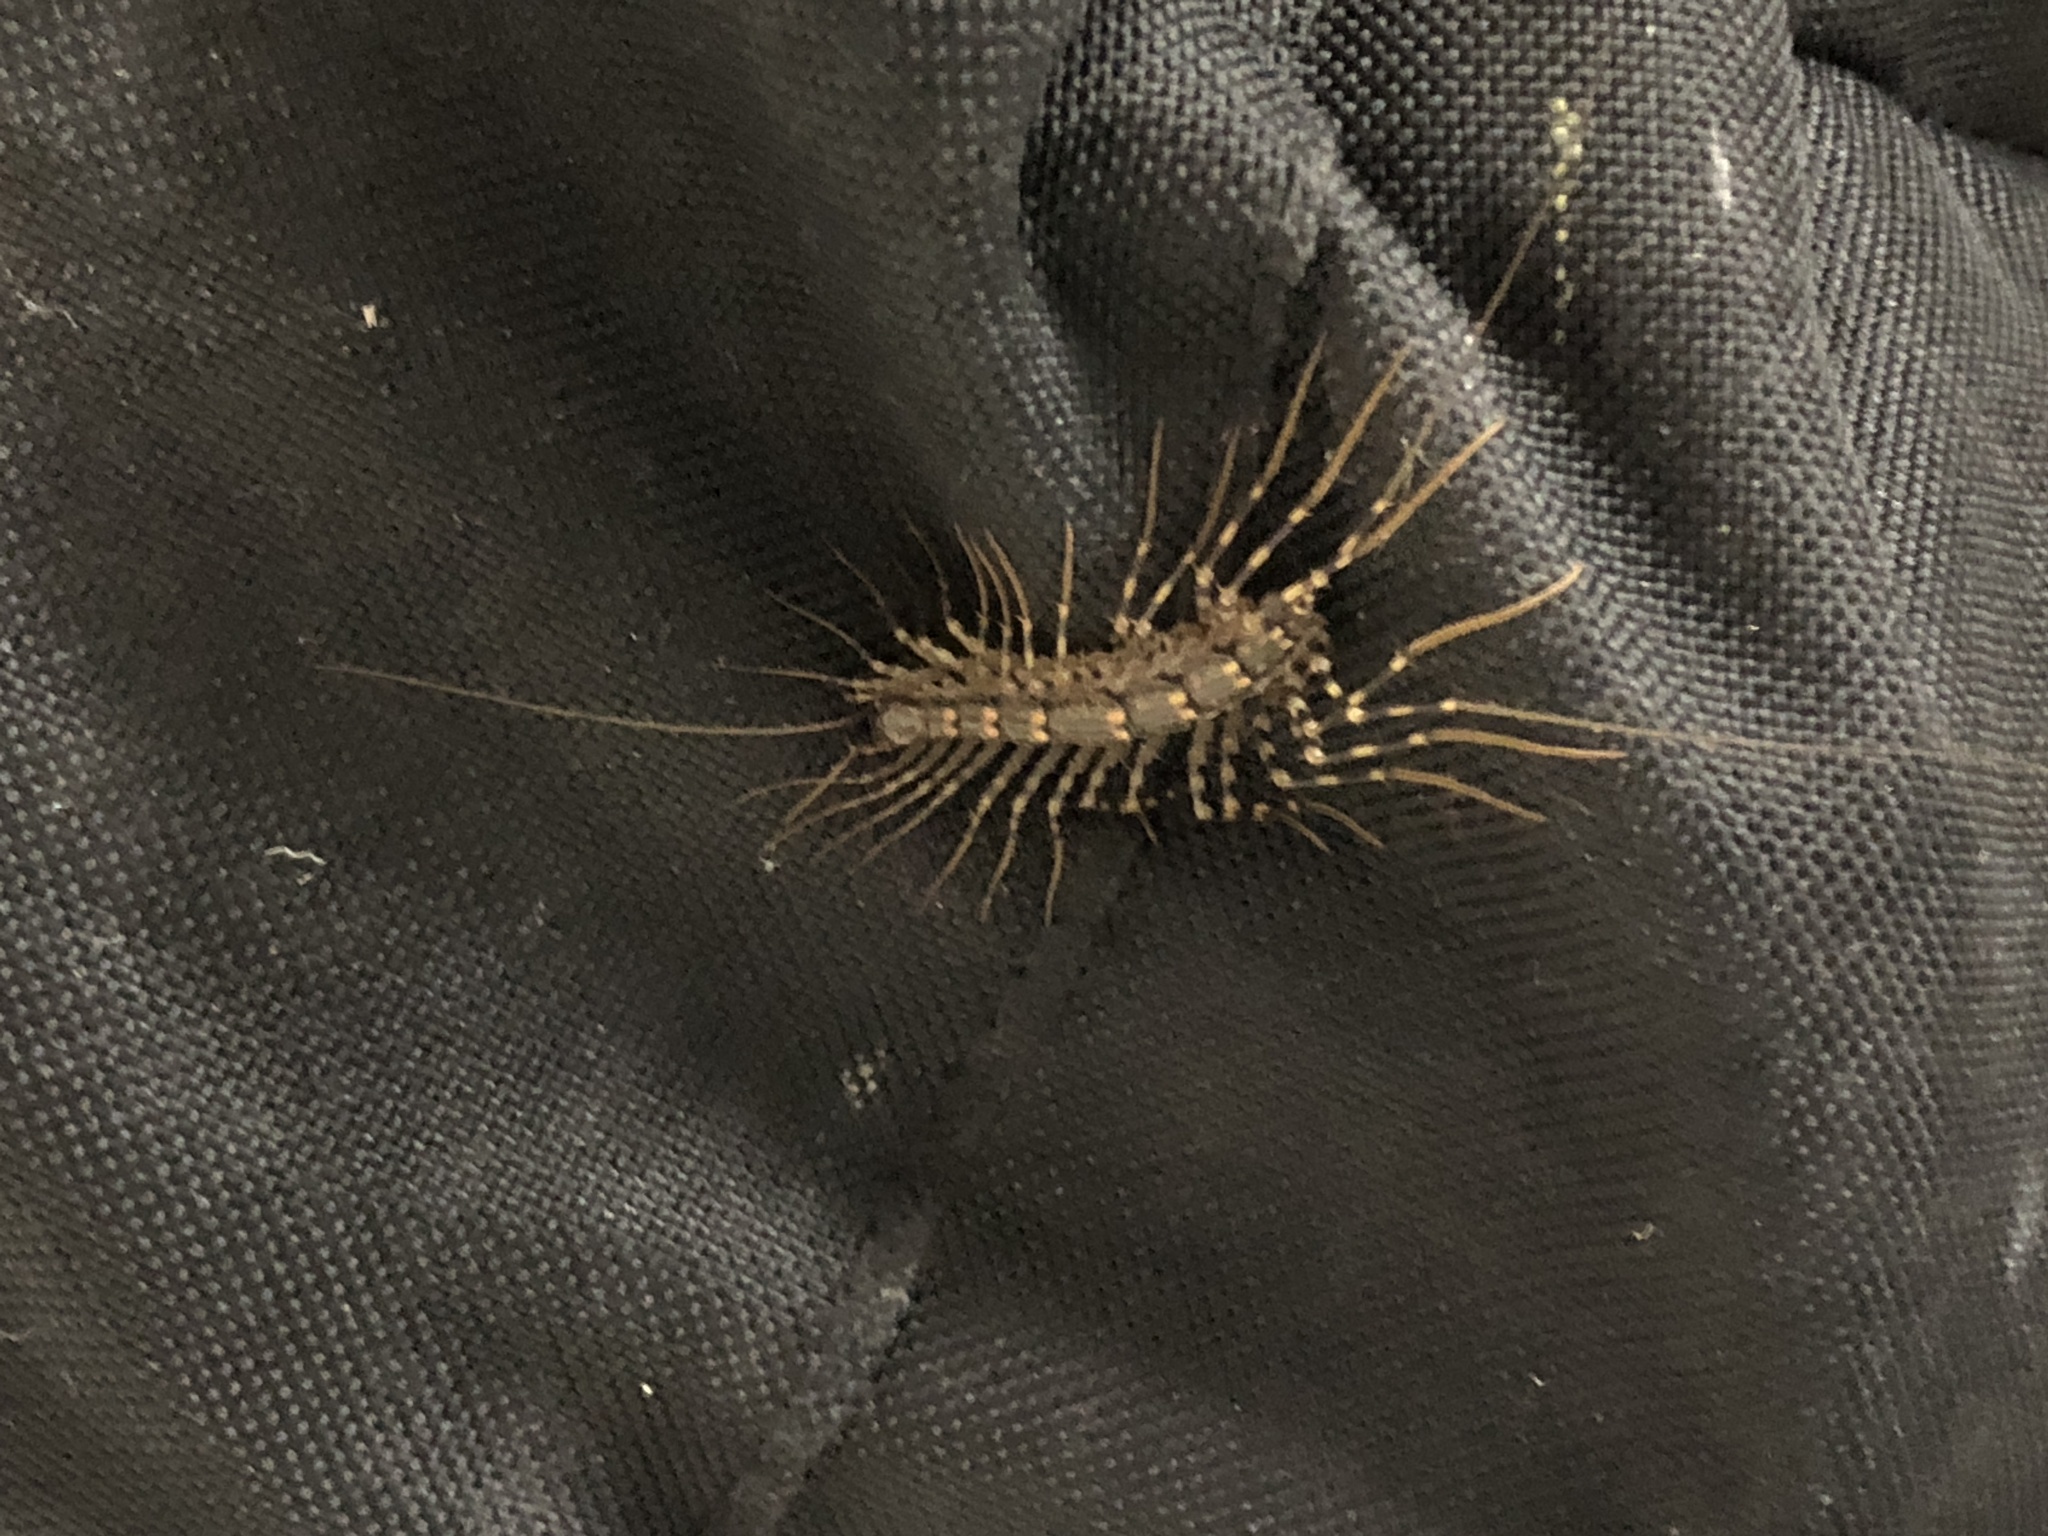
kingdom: Animalia
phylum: Arthropoda
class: Chilopoda
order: Scutigeromorpha
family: Scutigeridae
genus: Scutigera
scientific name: Scutigera coleoptrata
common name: House centipede
